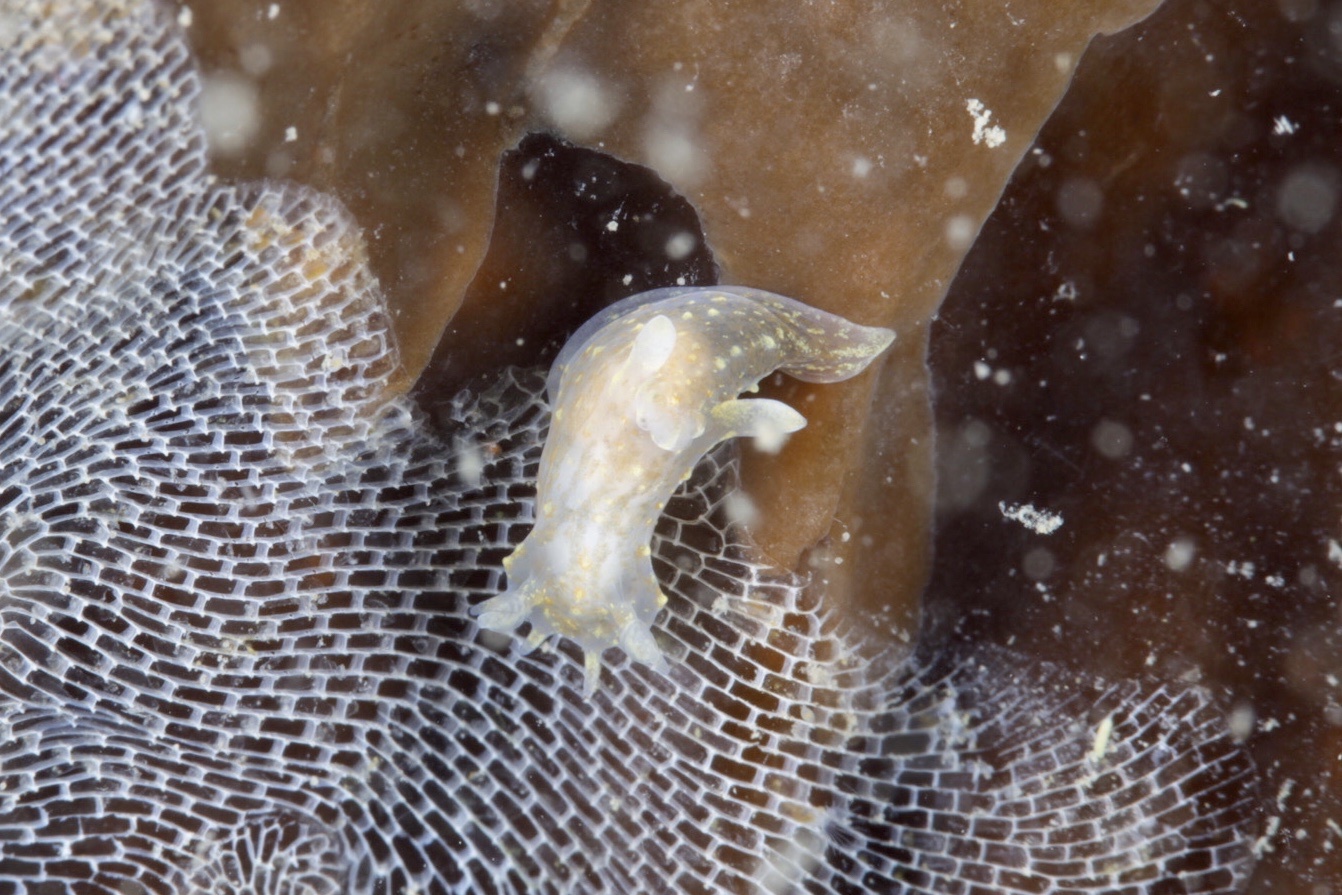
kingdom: Animalia
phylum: Mollusca
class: Gastropoda
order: Nudibranchia
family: Polyceridae
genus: Polycera
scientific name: Polycera norvegica
